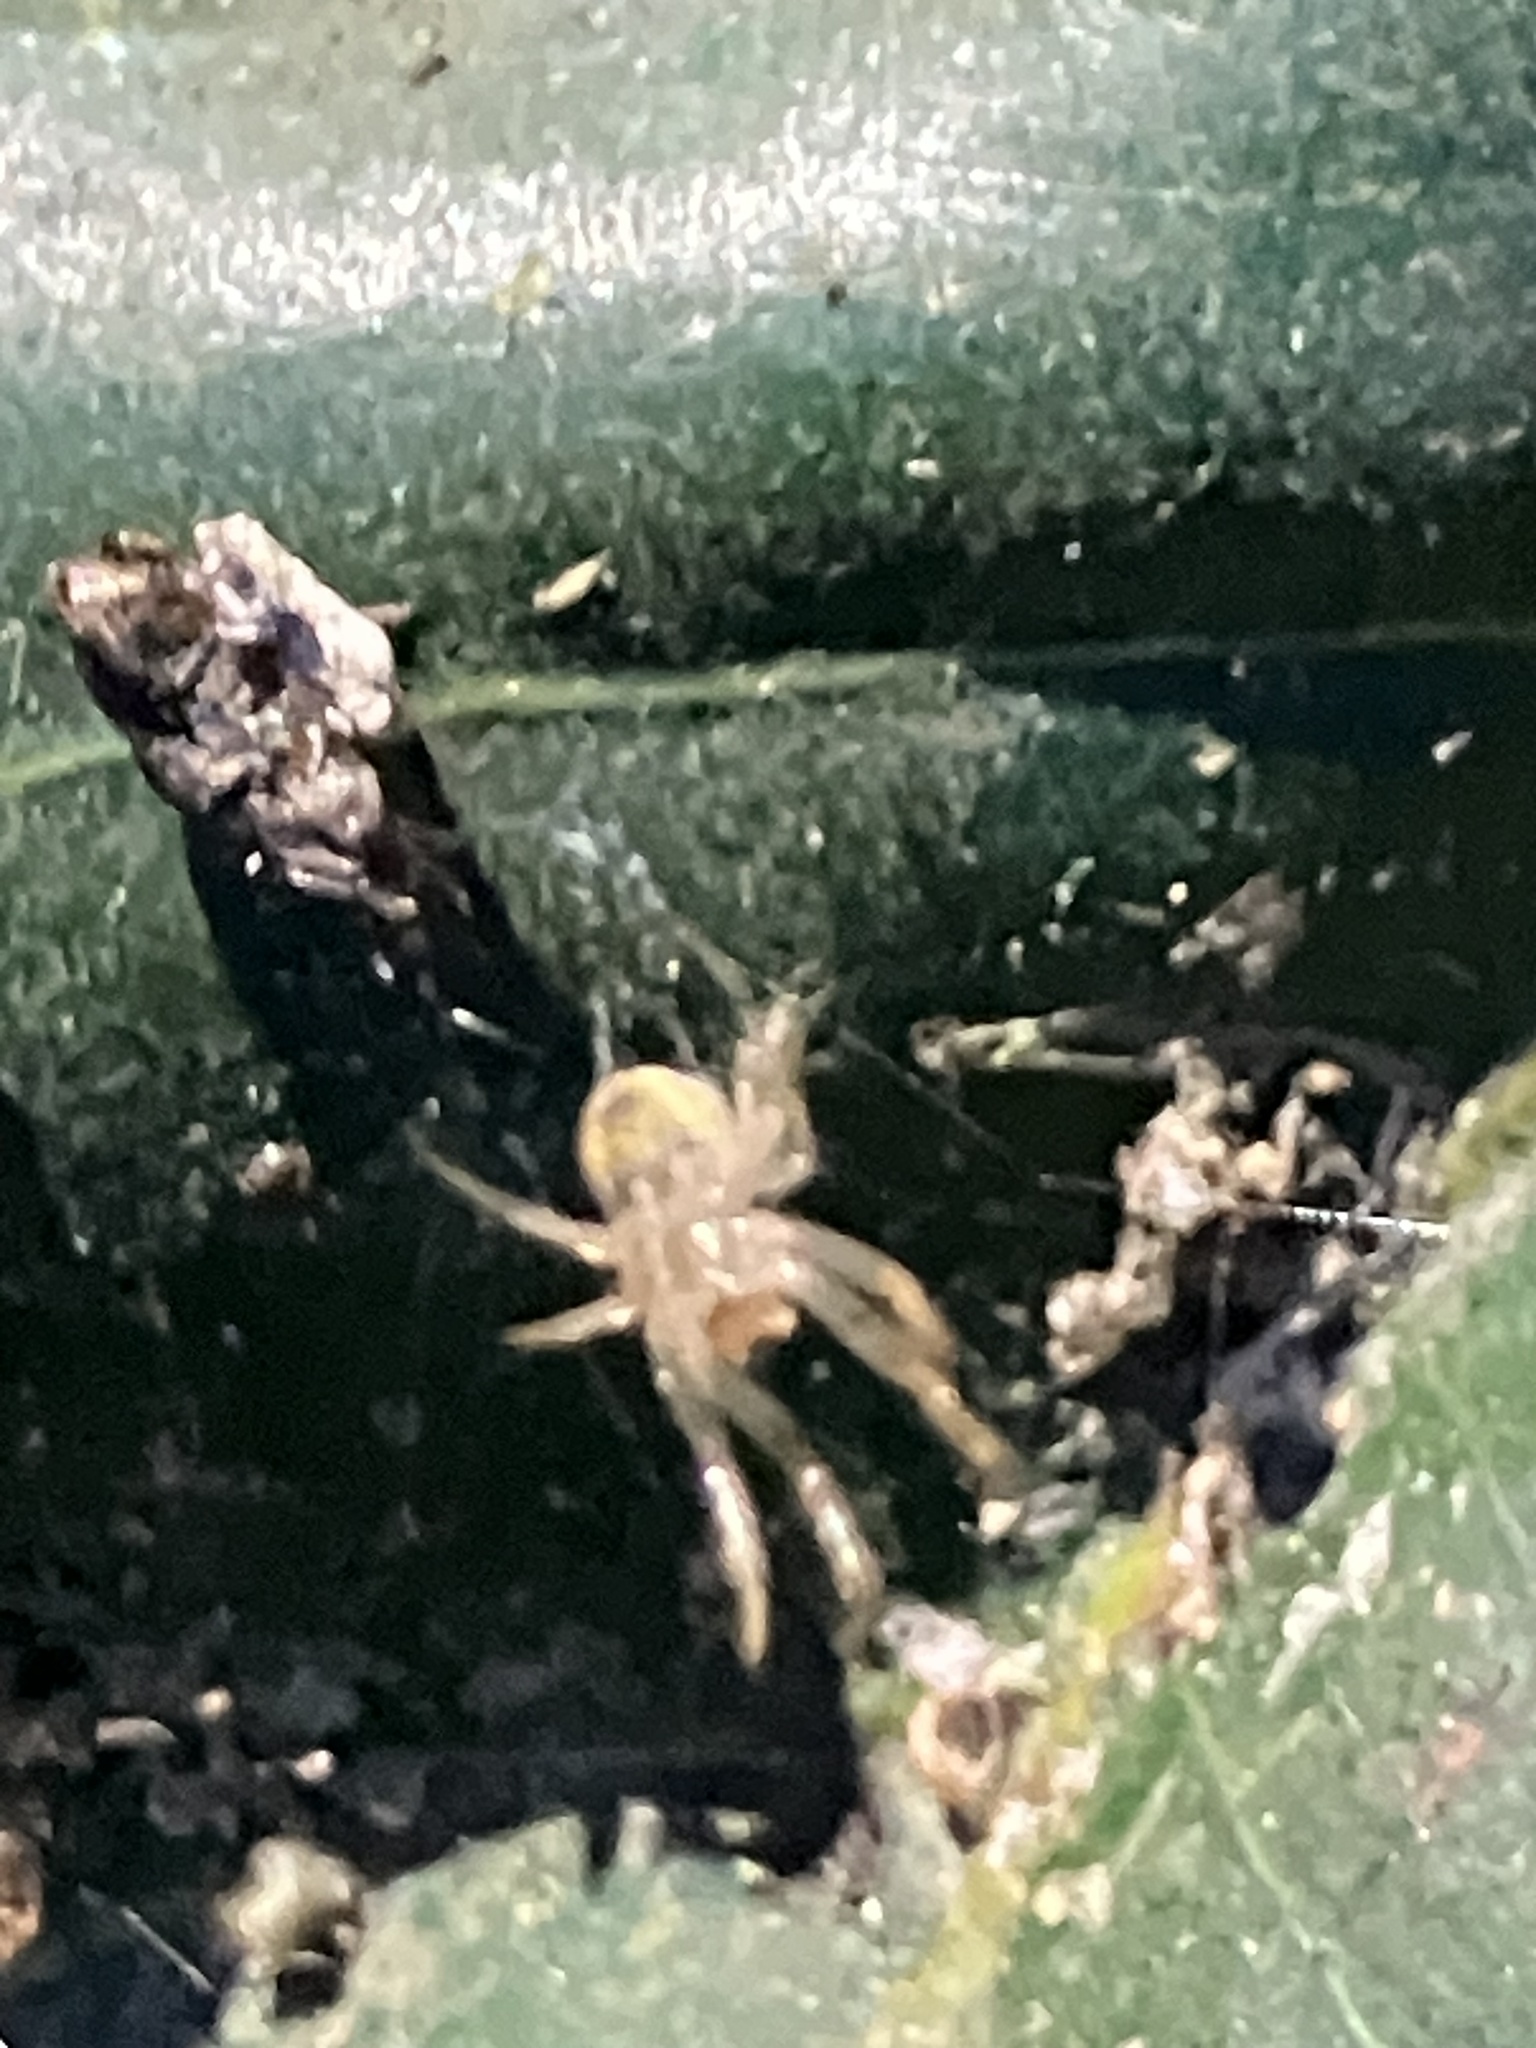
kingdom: Animalia
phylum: Arthropoda
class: Arachnida
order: Araneae
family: Araneidae
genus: Metazygia
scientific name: Metazygia
